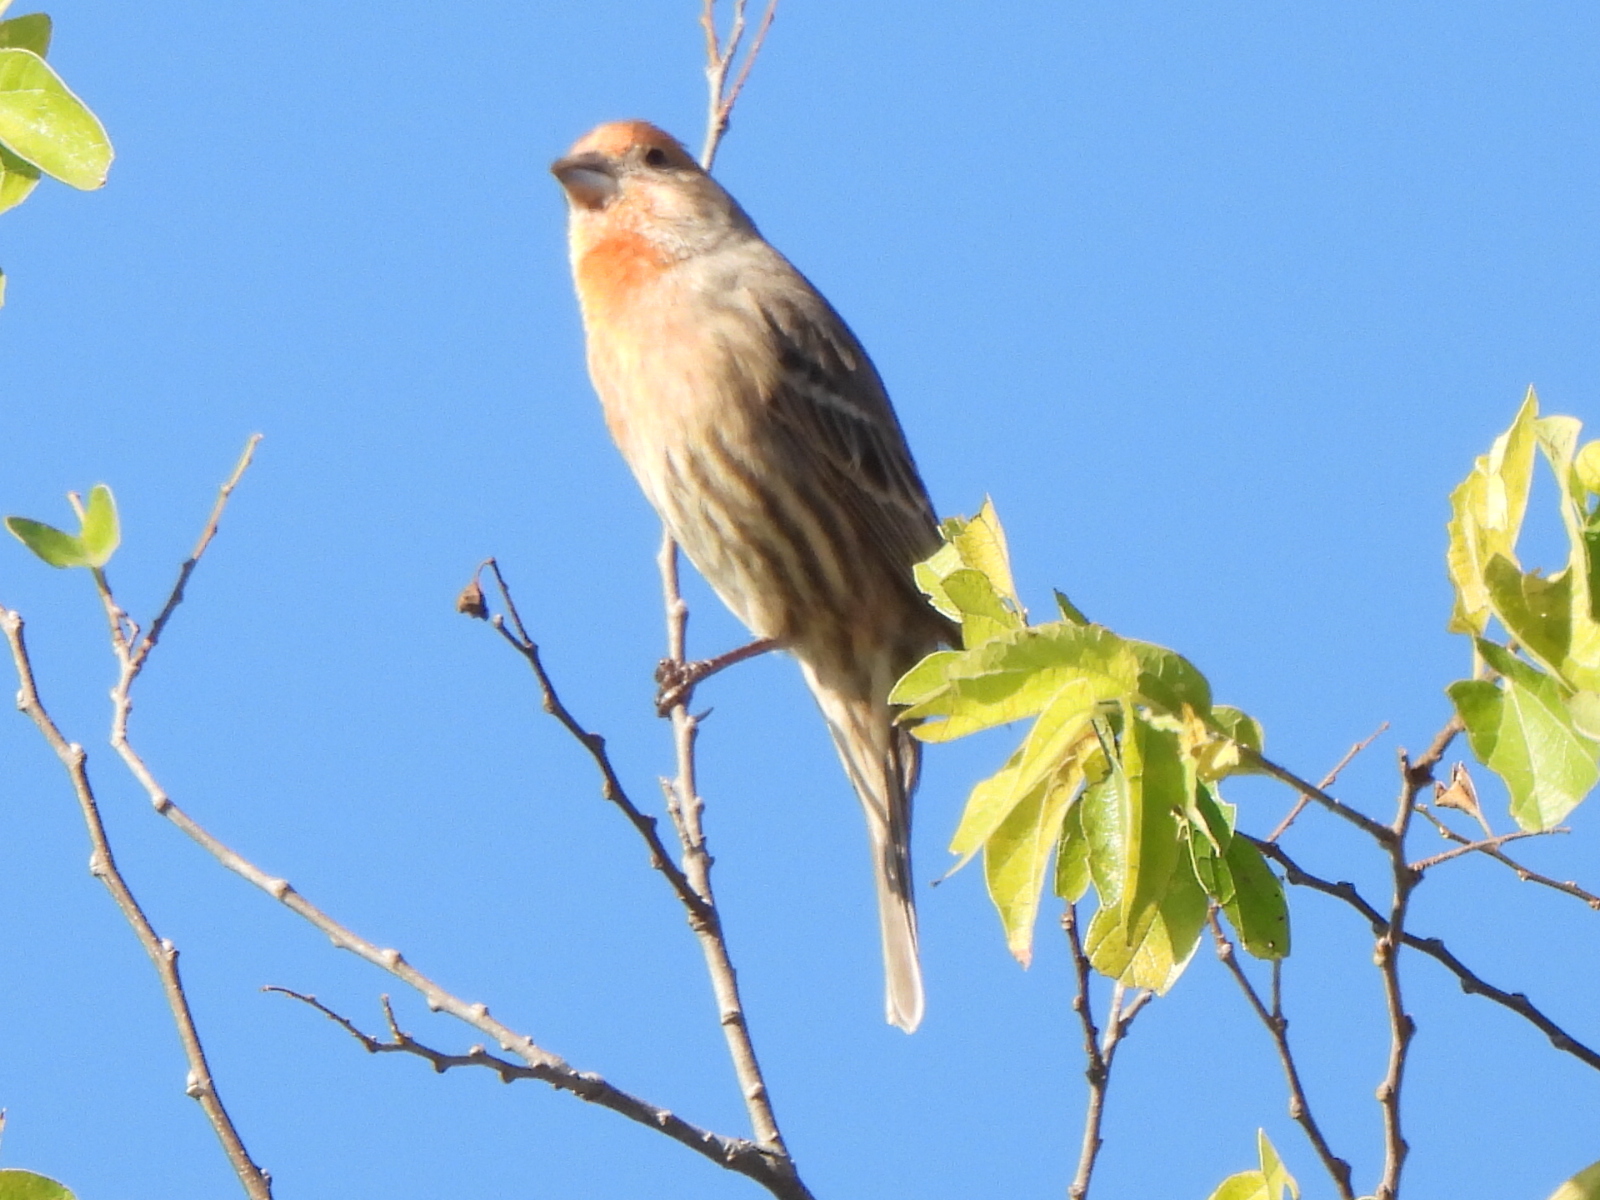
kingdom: Animalia
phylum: Chordata
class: Aves
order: Passeriformes
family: Fringillidae
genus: Haemorhous
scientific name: Haemorhous mexicanus
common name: House finch
